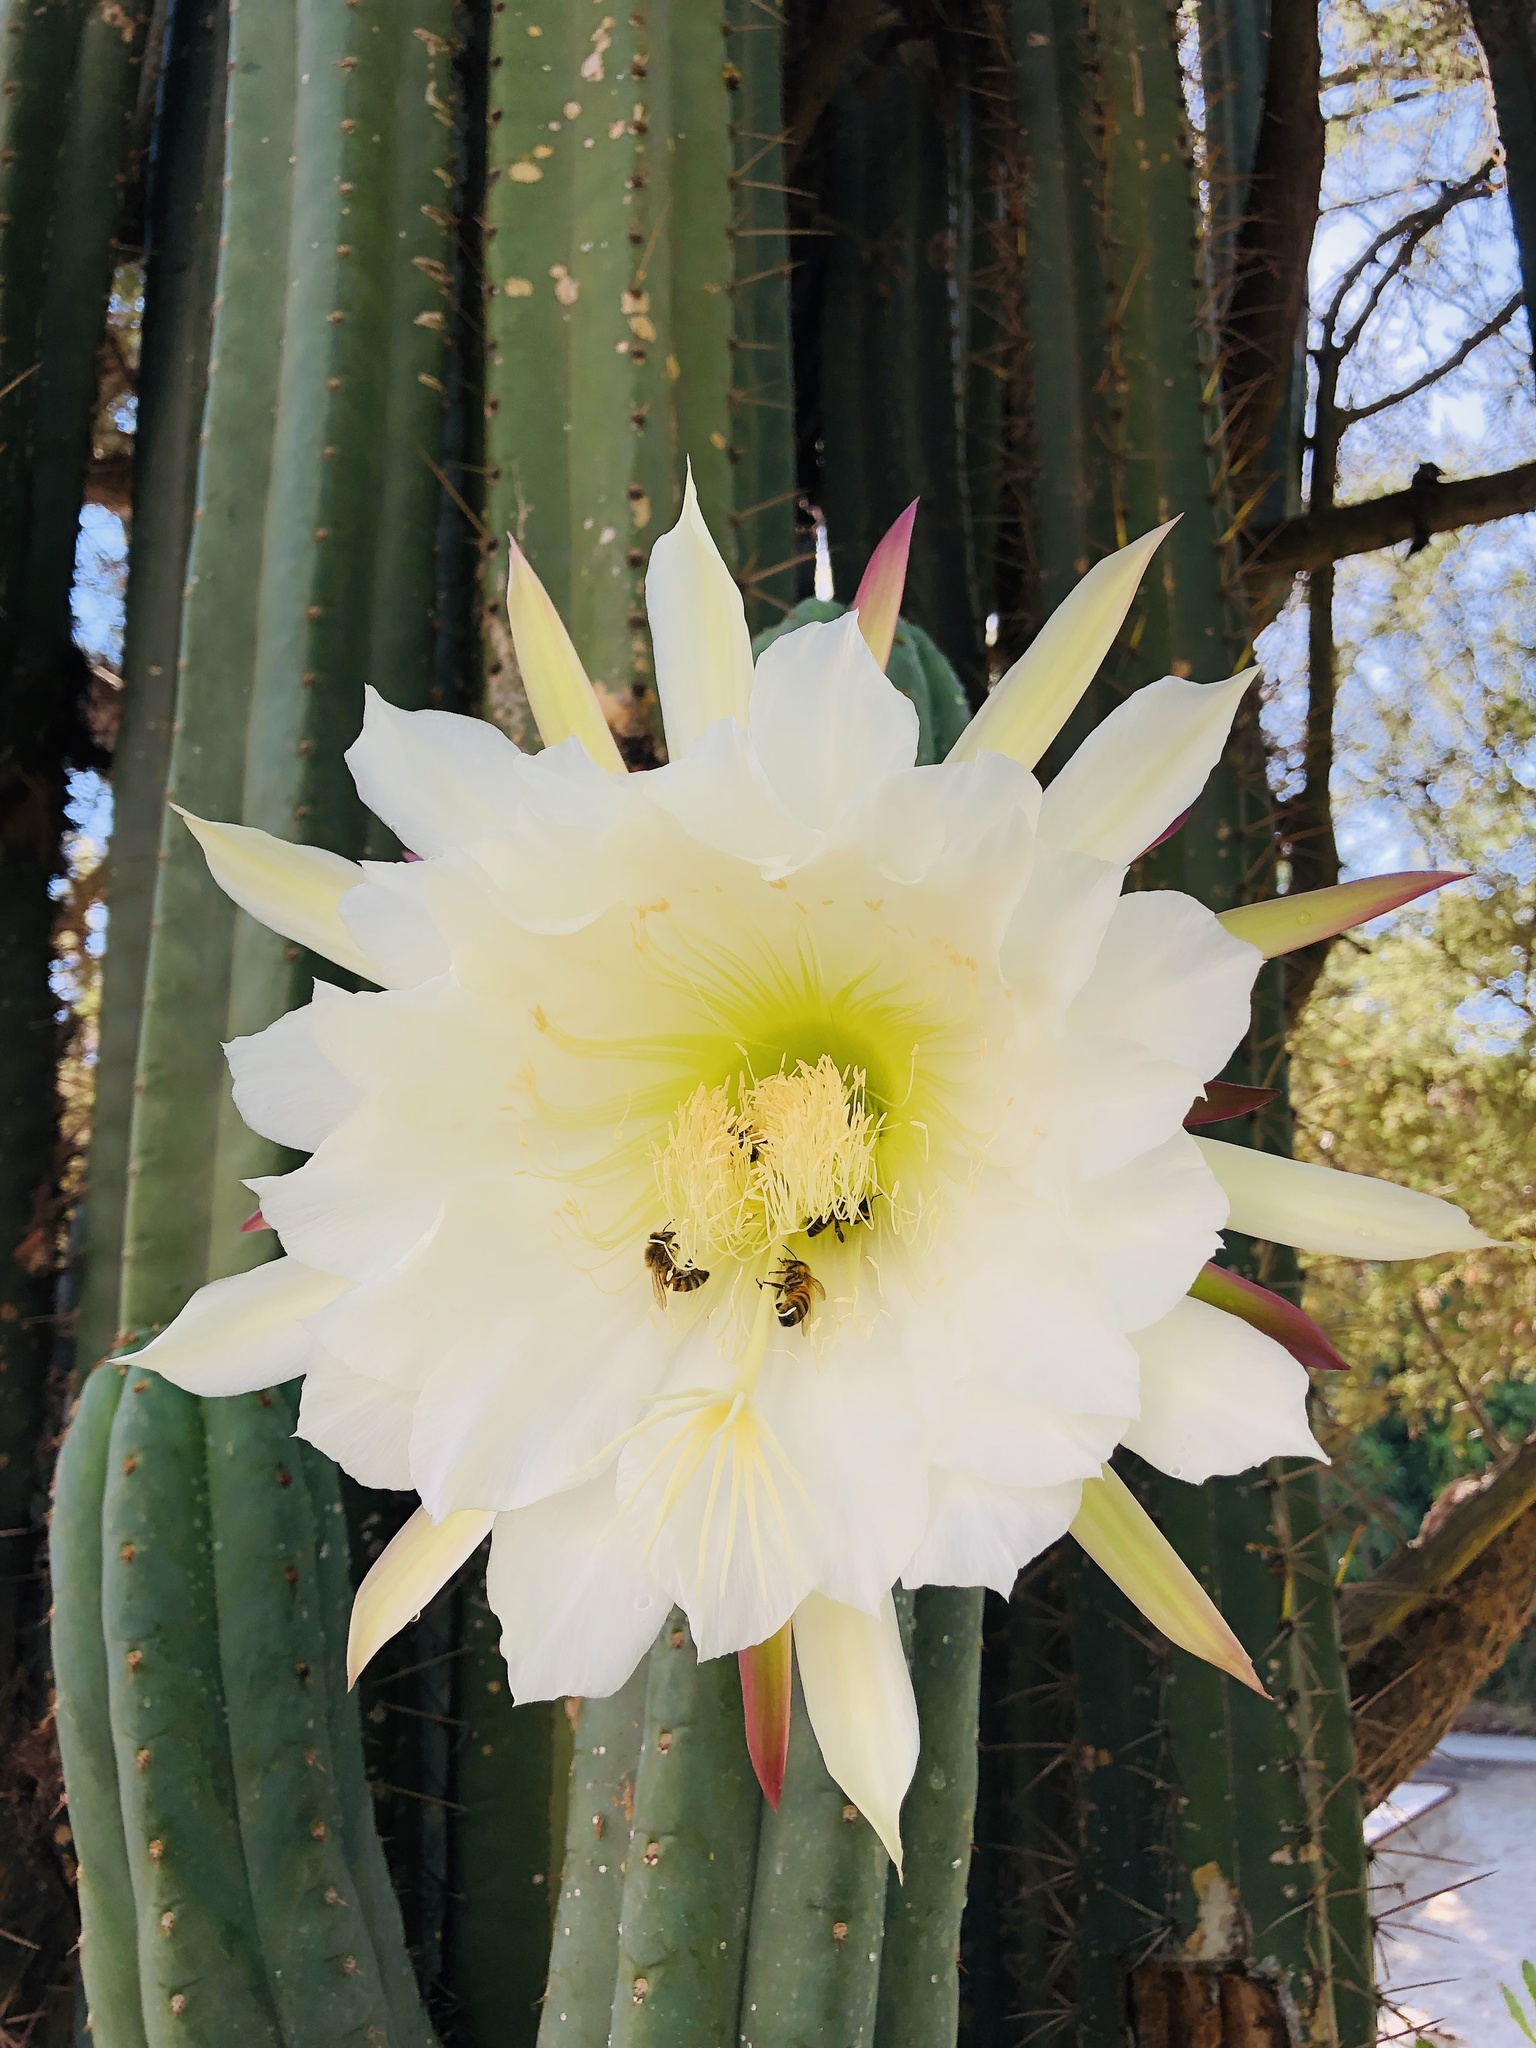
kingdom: Animalia
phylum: Arthropoda
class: Insecta
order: Hymenoptera
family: Apidae
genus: Apis
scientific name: Apis mellifera
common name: Honey bee
